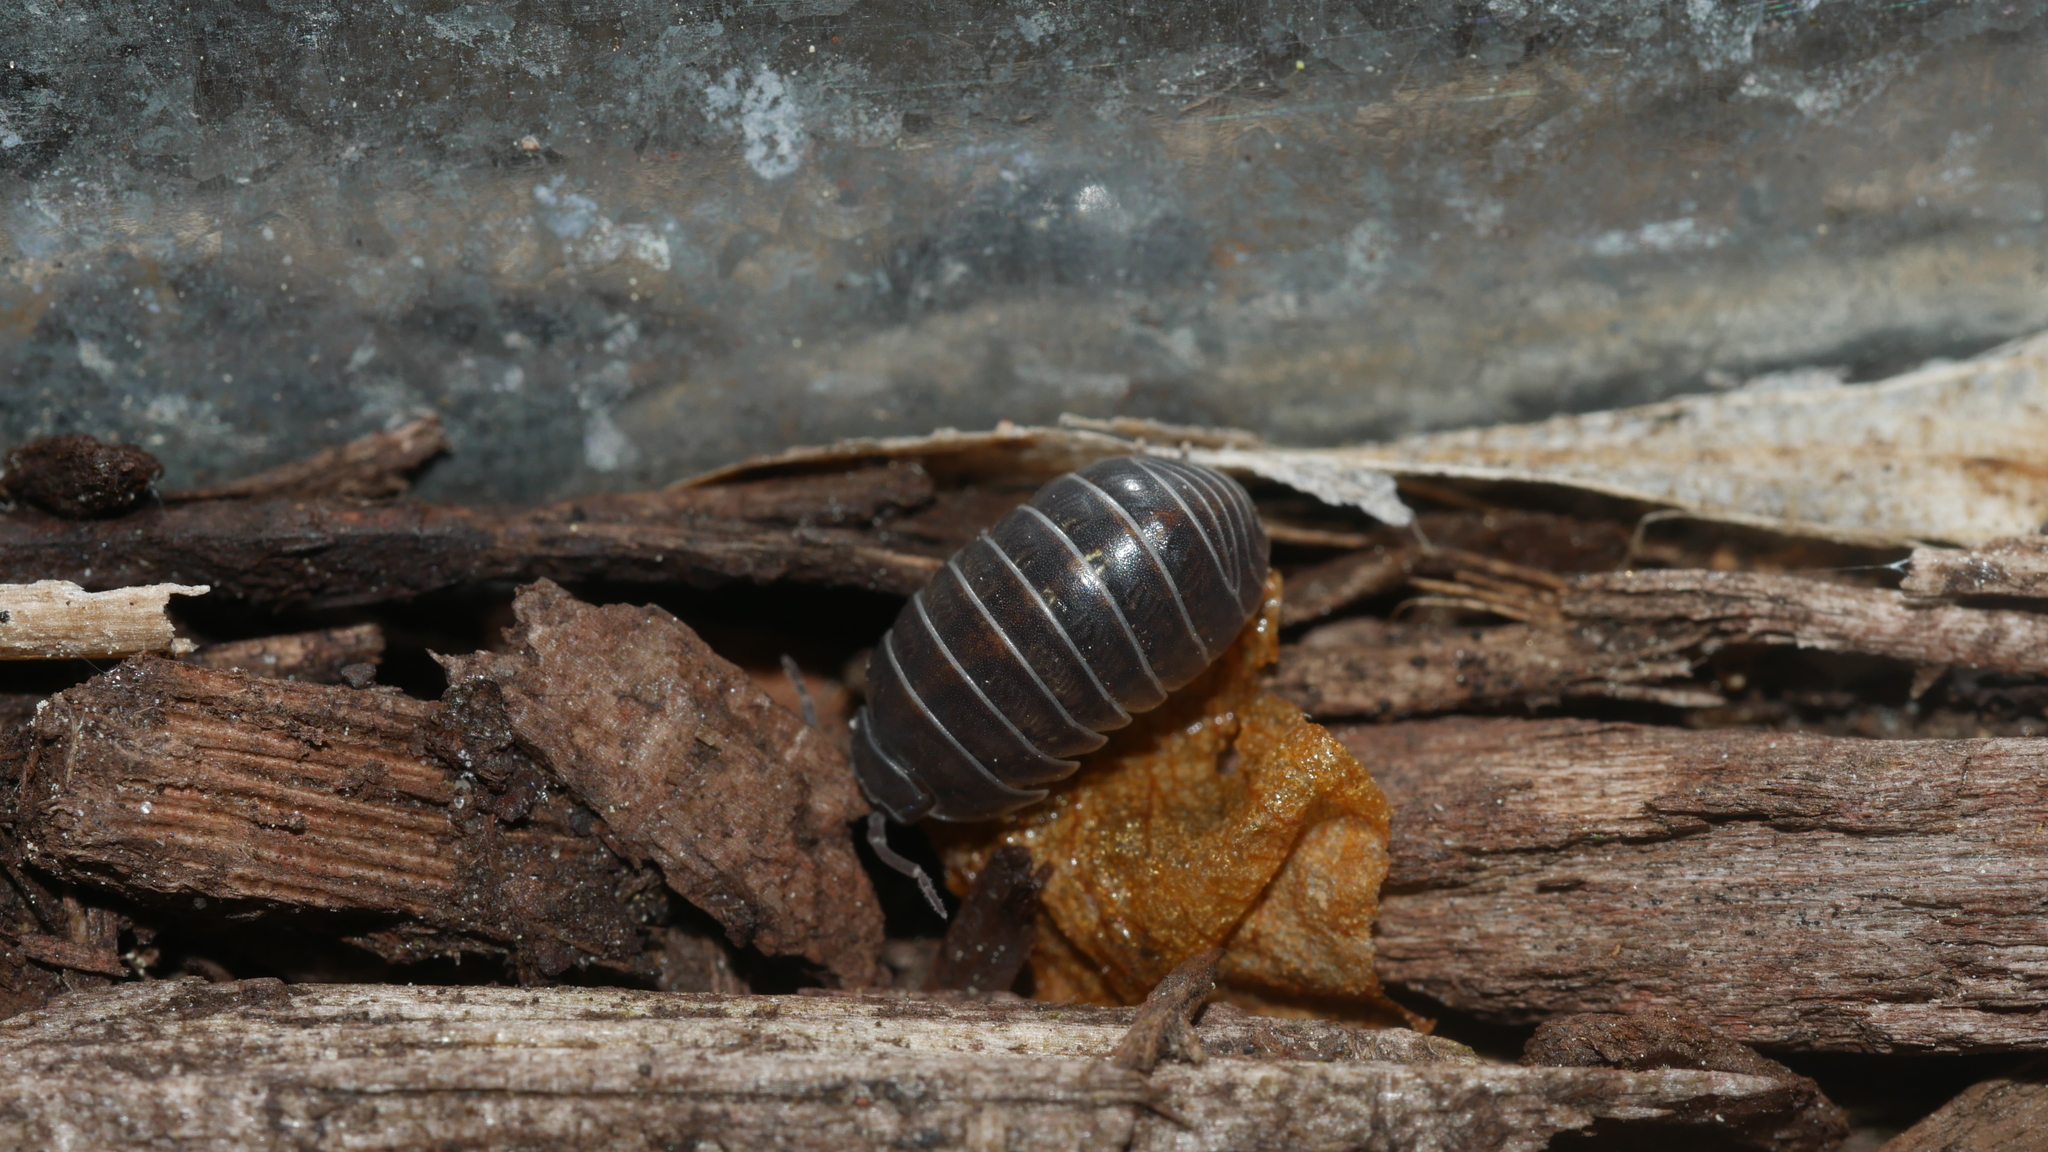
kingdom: Animalia
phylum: Arthropoda
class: Malacostraca
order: Isopoda
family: Armadillidiidae
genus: Armadillidium
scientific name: Armadillidium vulgare
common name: Common pill woodlouse
